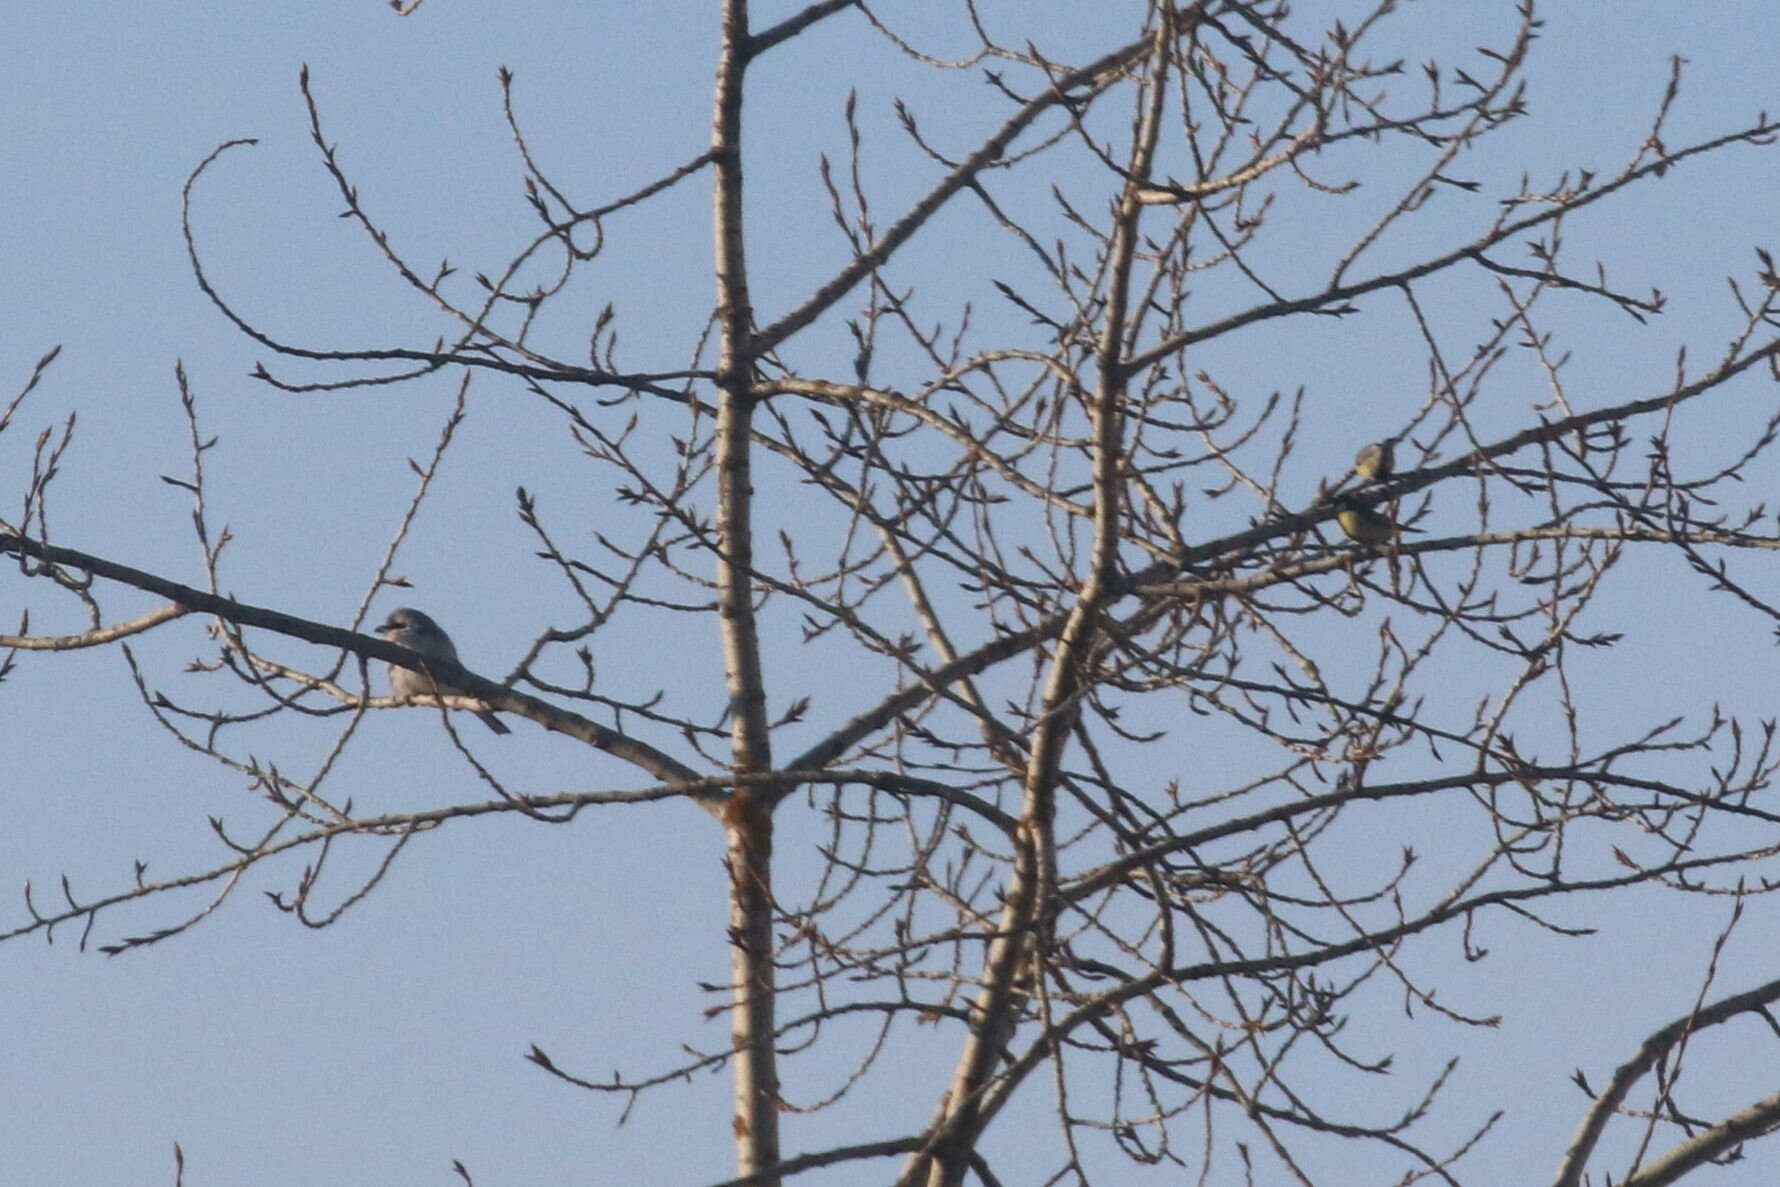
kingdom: Animalia
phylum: Chordata
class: Aves
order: Passeriformes
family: Paridae
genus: Parus
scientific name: Parus major
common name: Great tit
